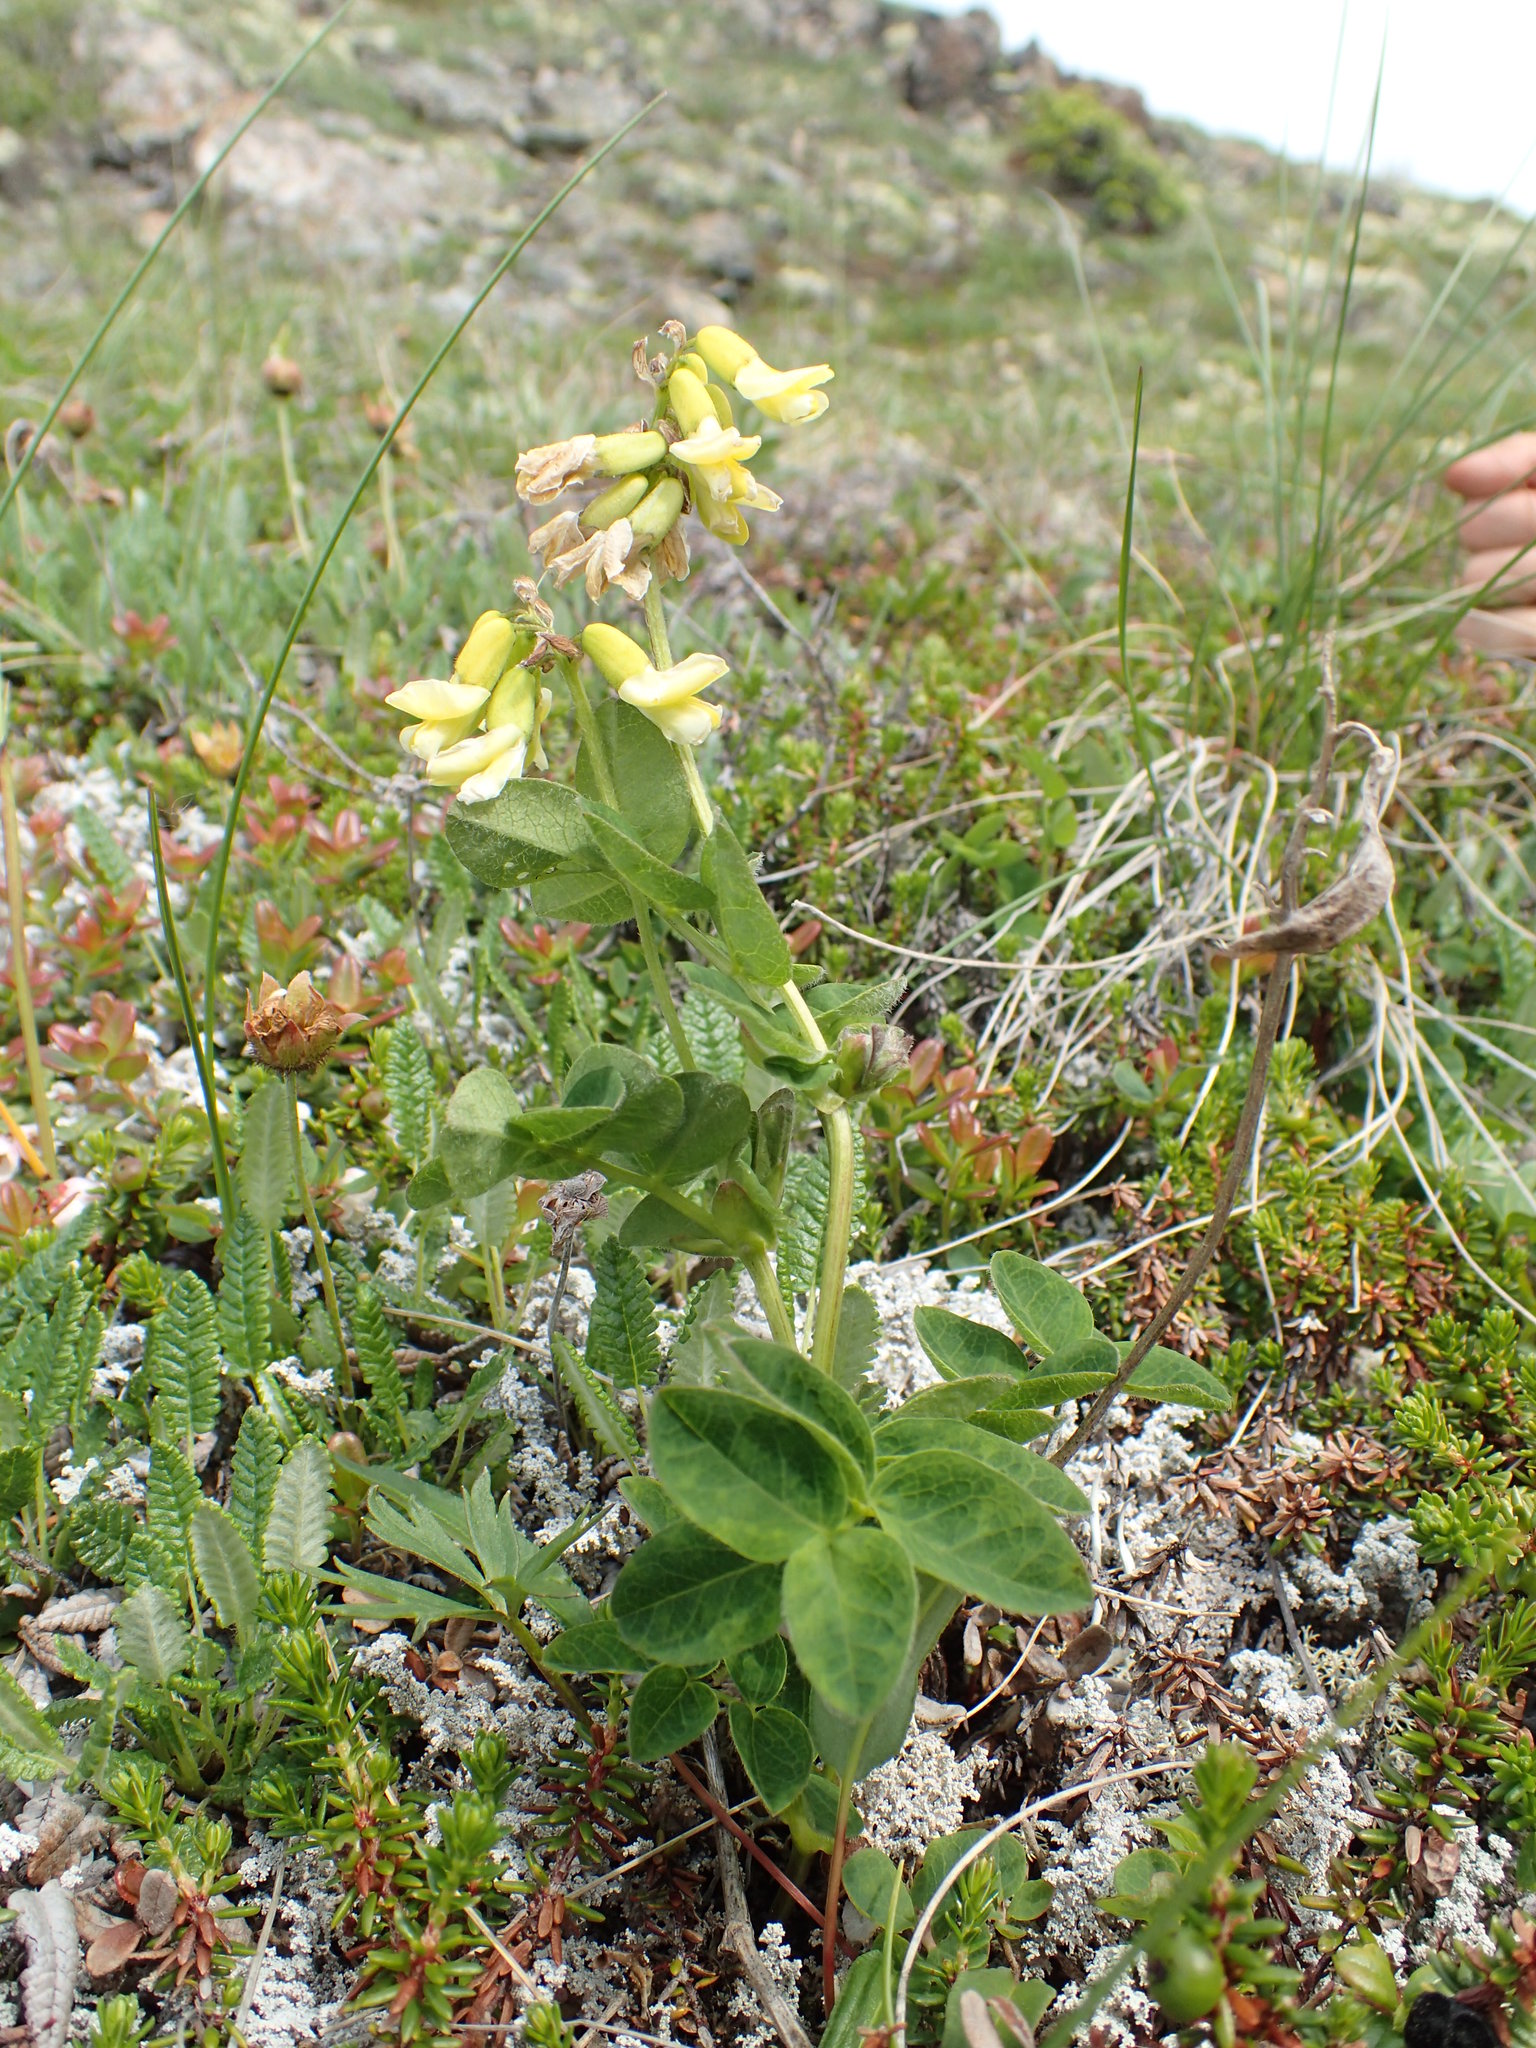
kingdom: Plantae
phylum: Tracheophyta
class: Magnoliopsida
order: Fabales
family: Fabaceae
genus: Astragalus
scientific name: Astragalus umbellatus
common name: Tundra milk-vetch
